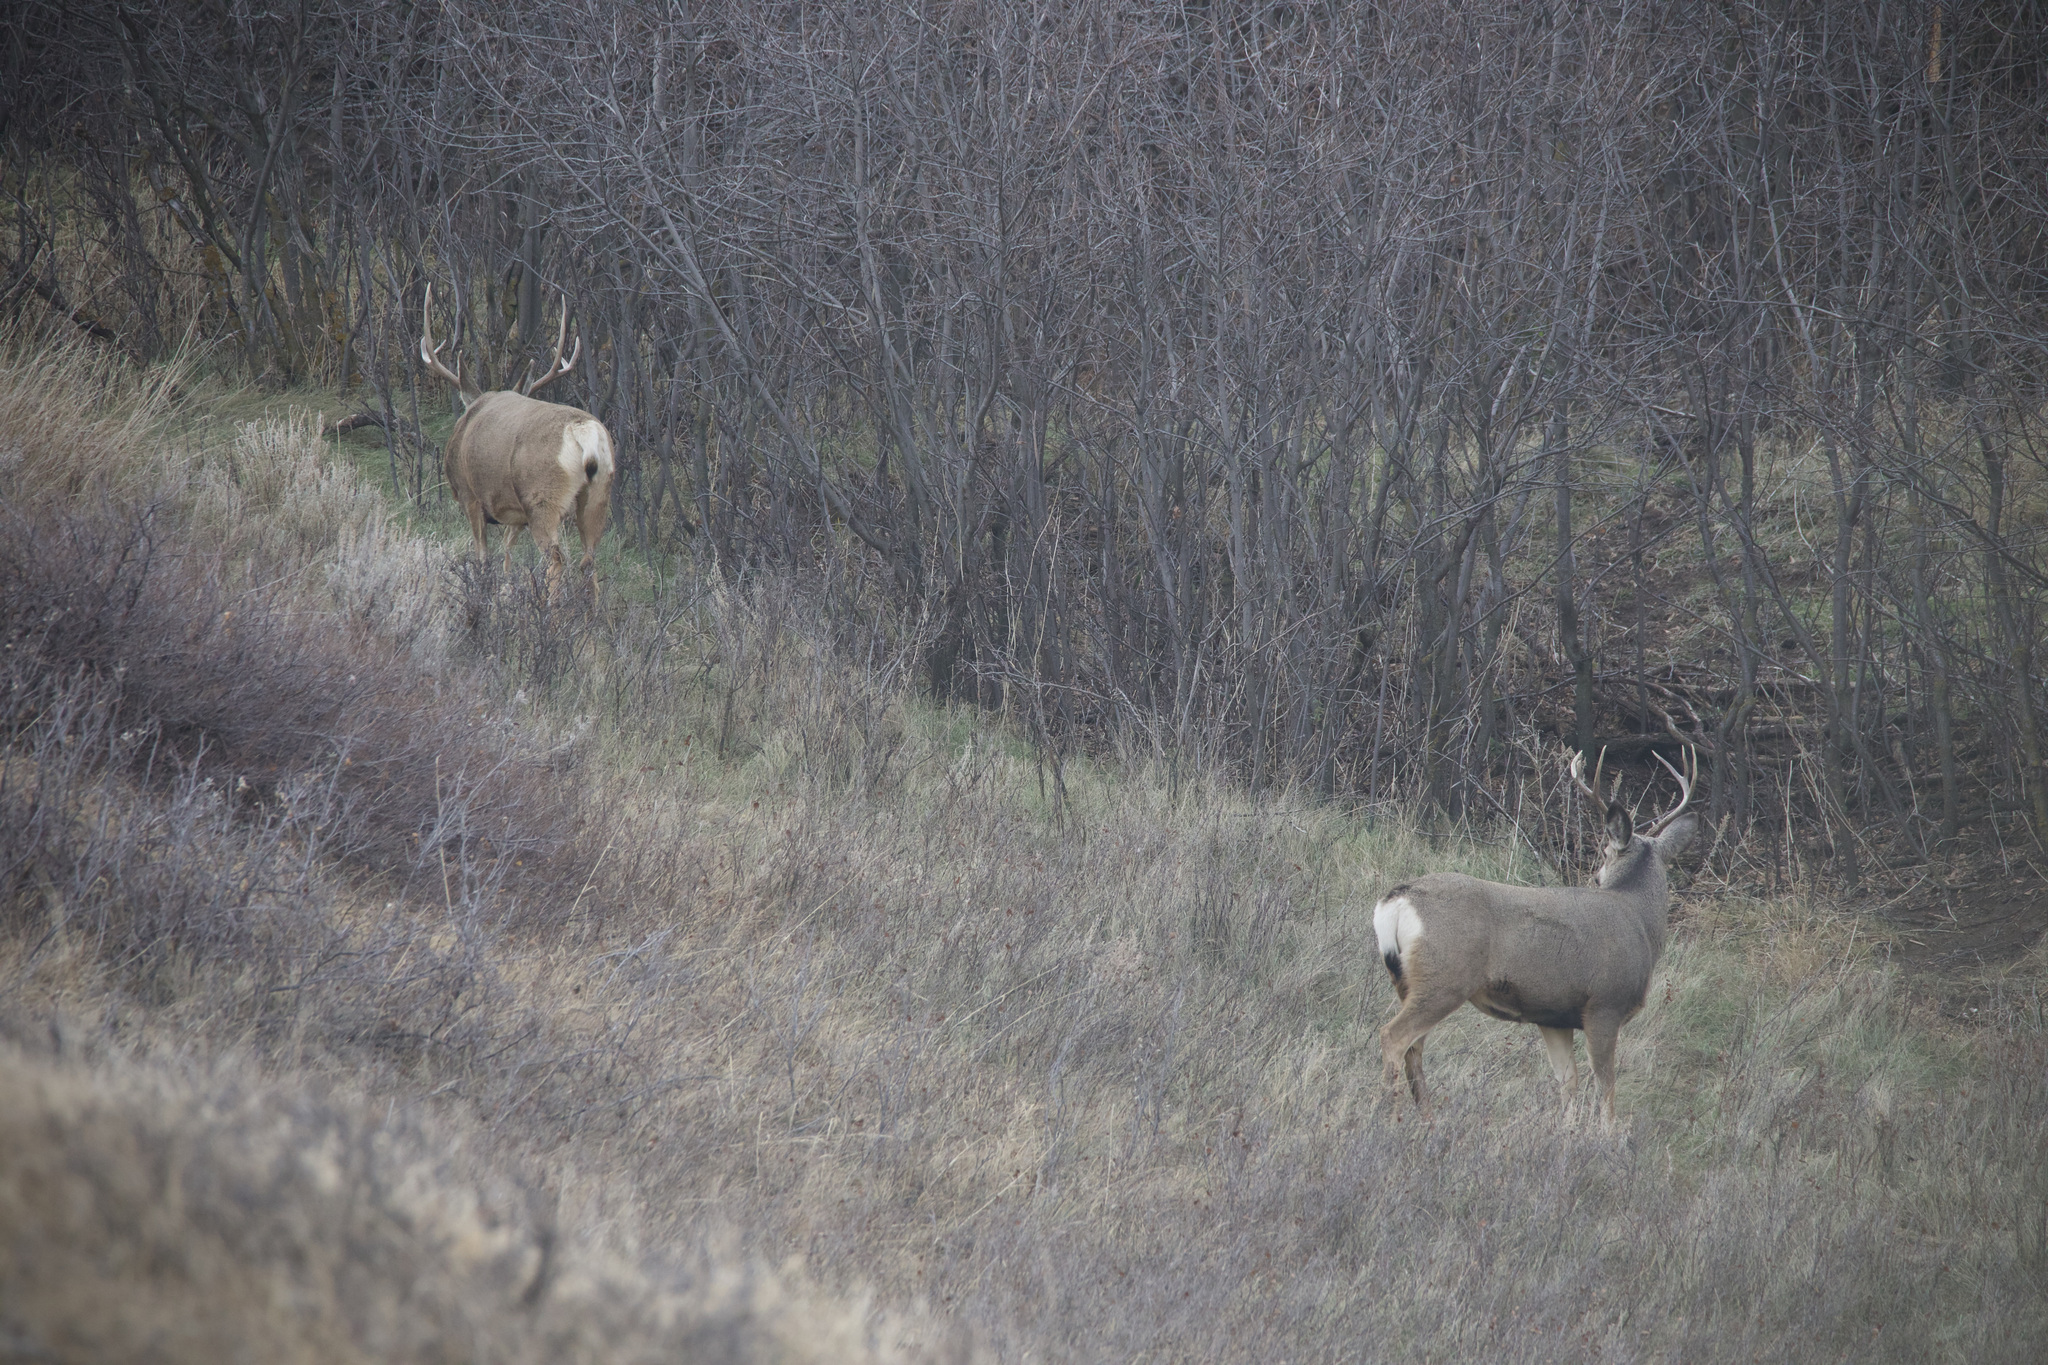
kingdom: Animalia
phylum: Chordata
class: Mammalia
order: Artiodactyla
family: Cervidae
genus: Odocoileus
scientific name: Odocoileus hemionus
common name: Mule deer
